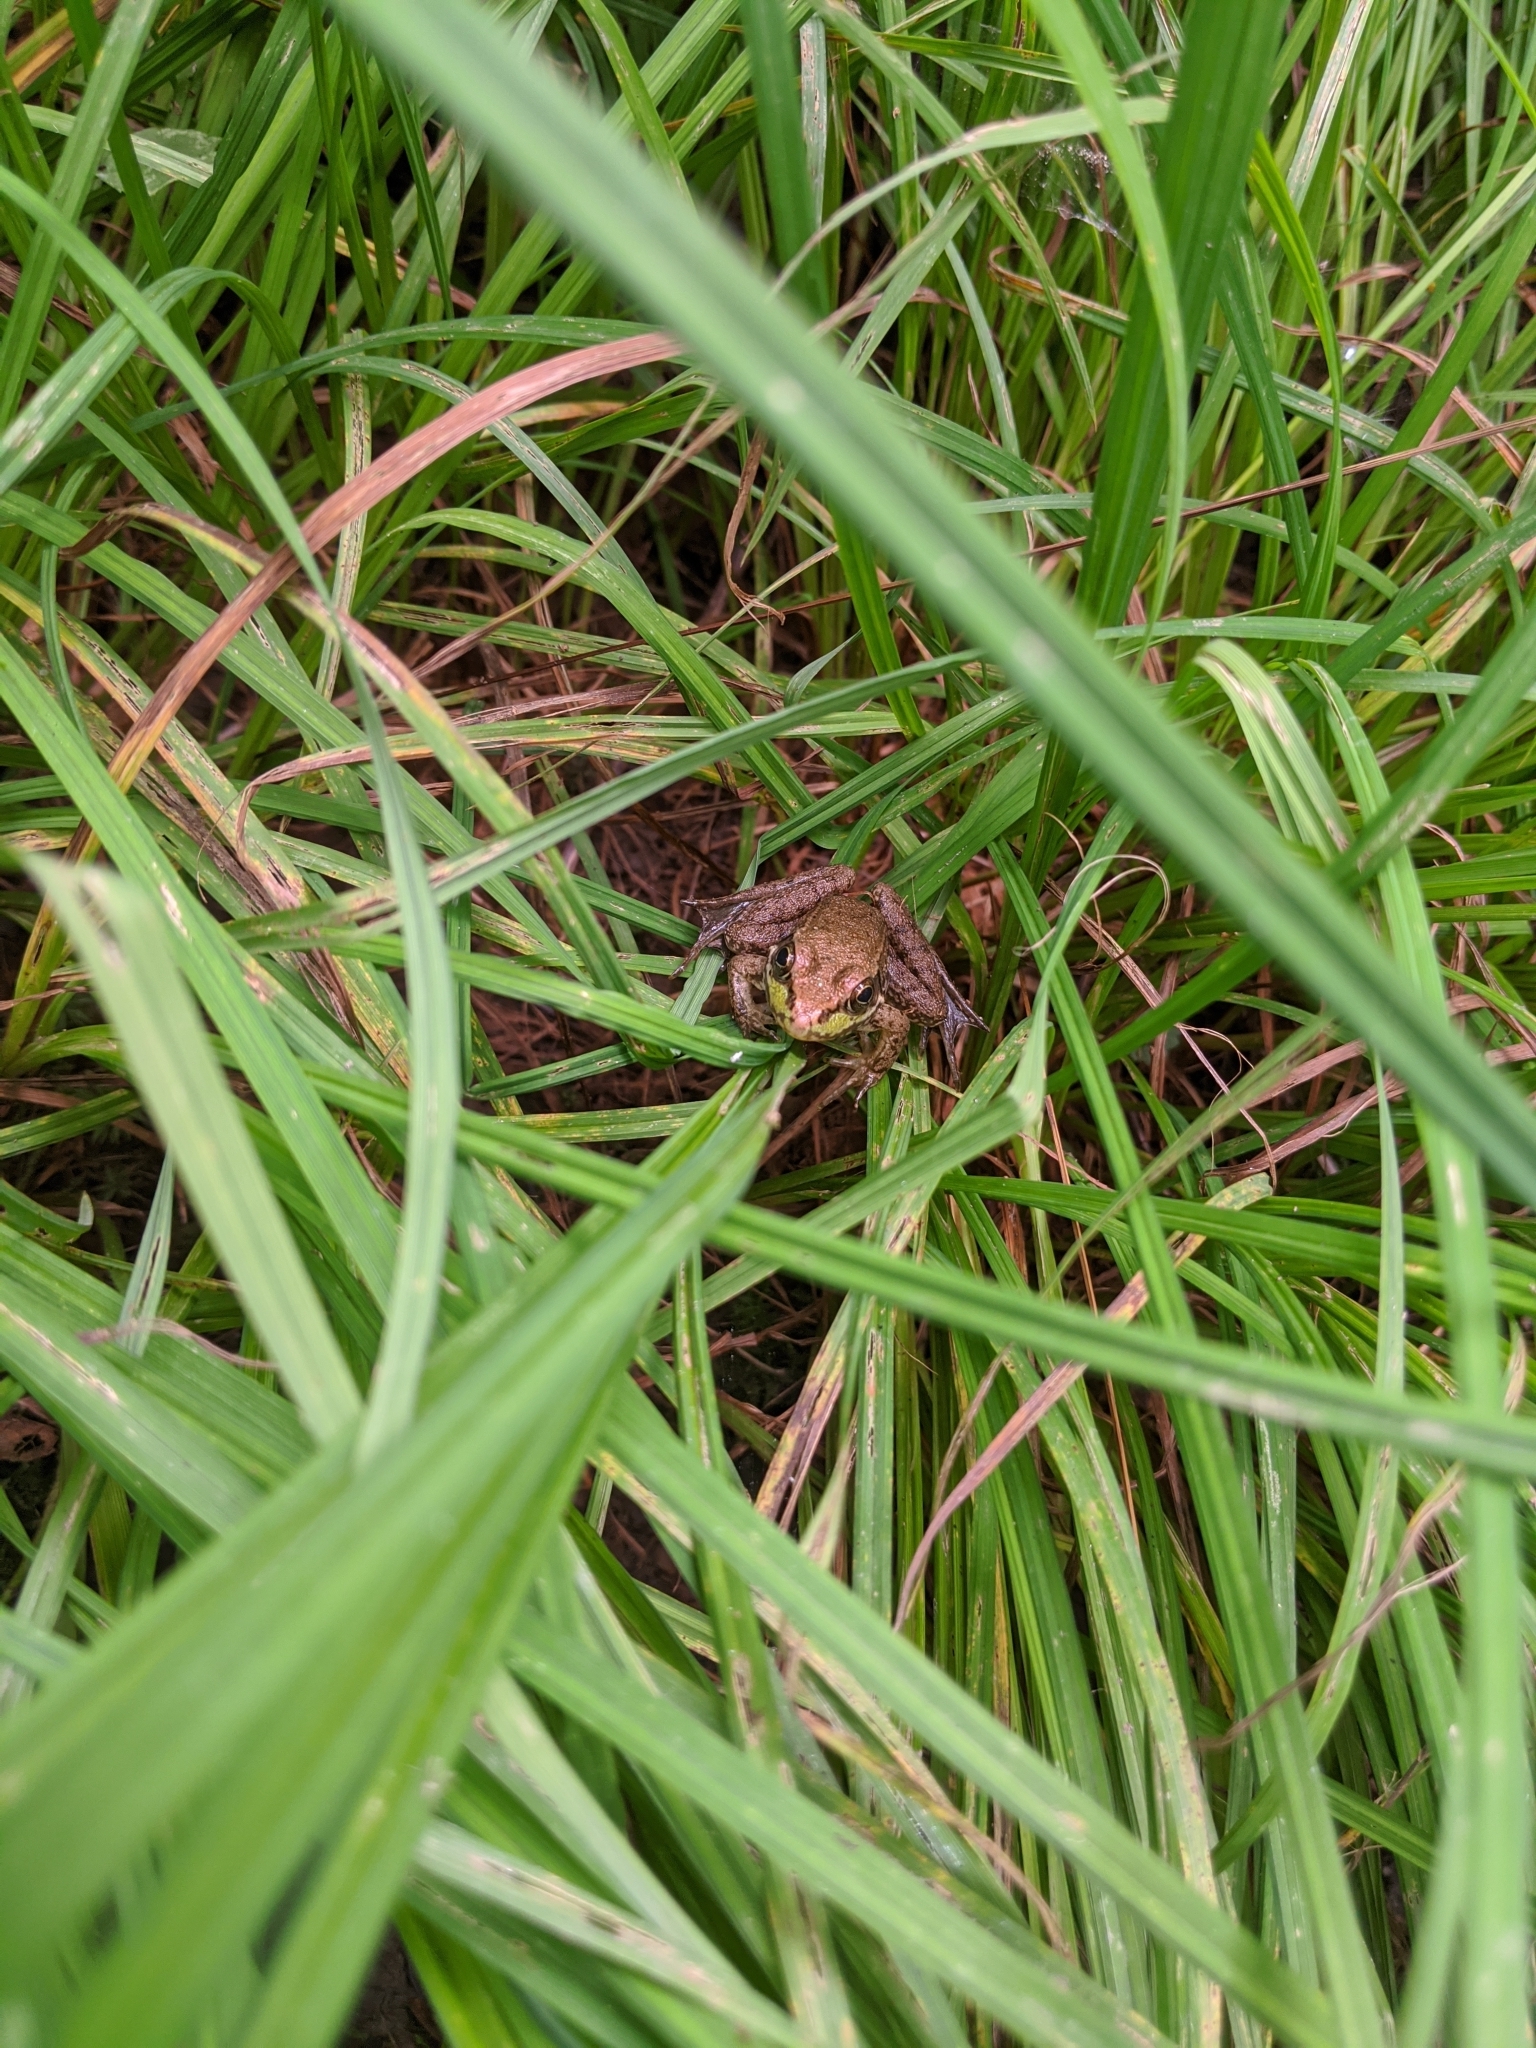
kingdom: Animalia
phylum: Chordata
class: Amphibia
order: Anura
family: Ranidae
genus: Lithobates
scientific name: Lithobates clamitans
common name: Green frog
